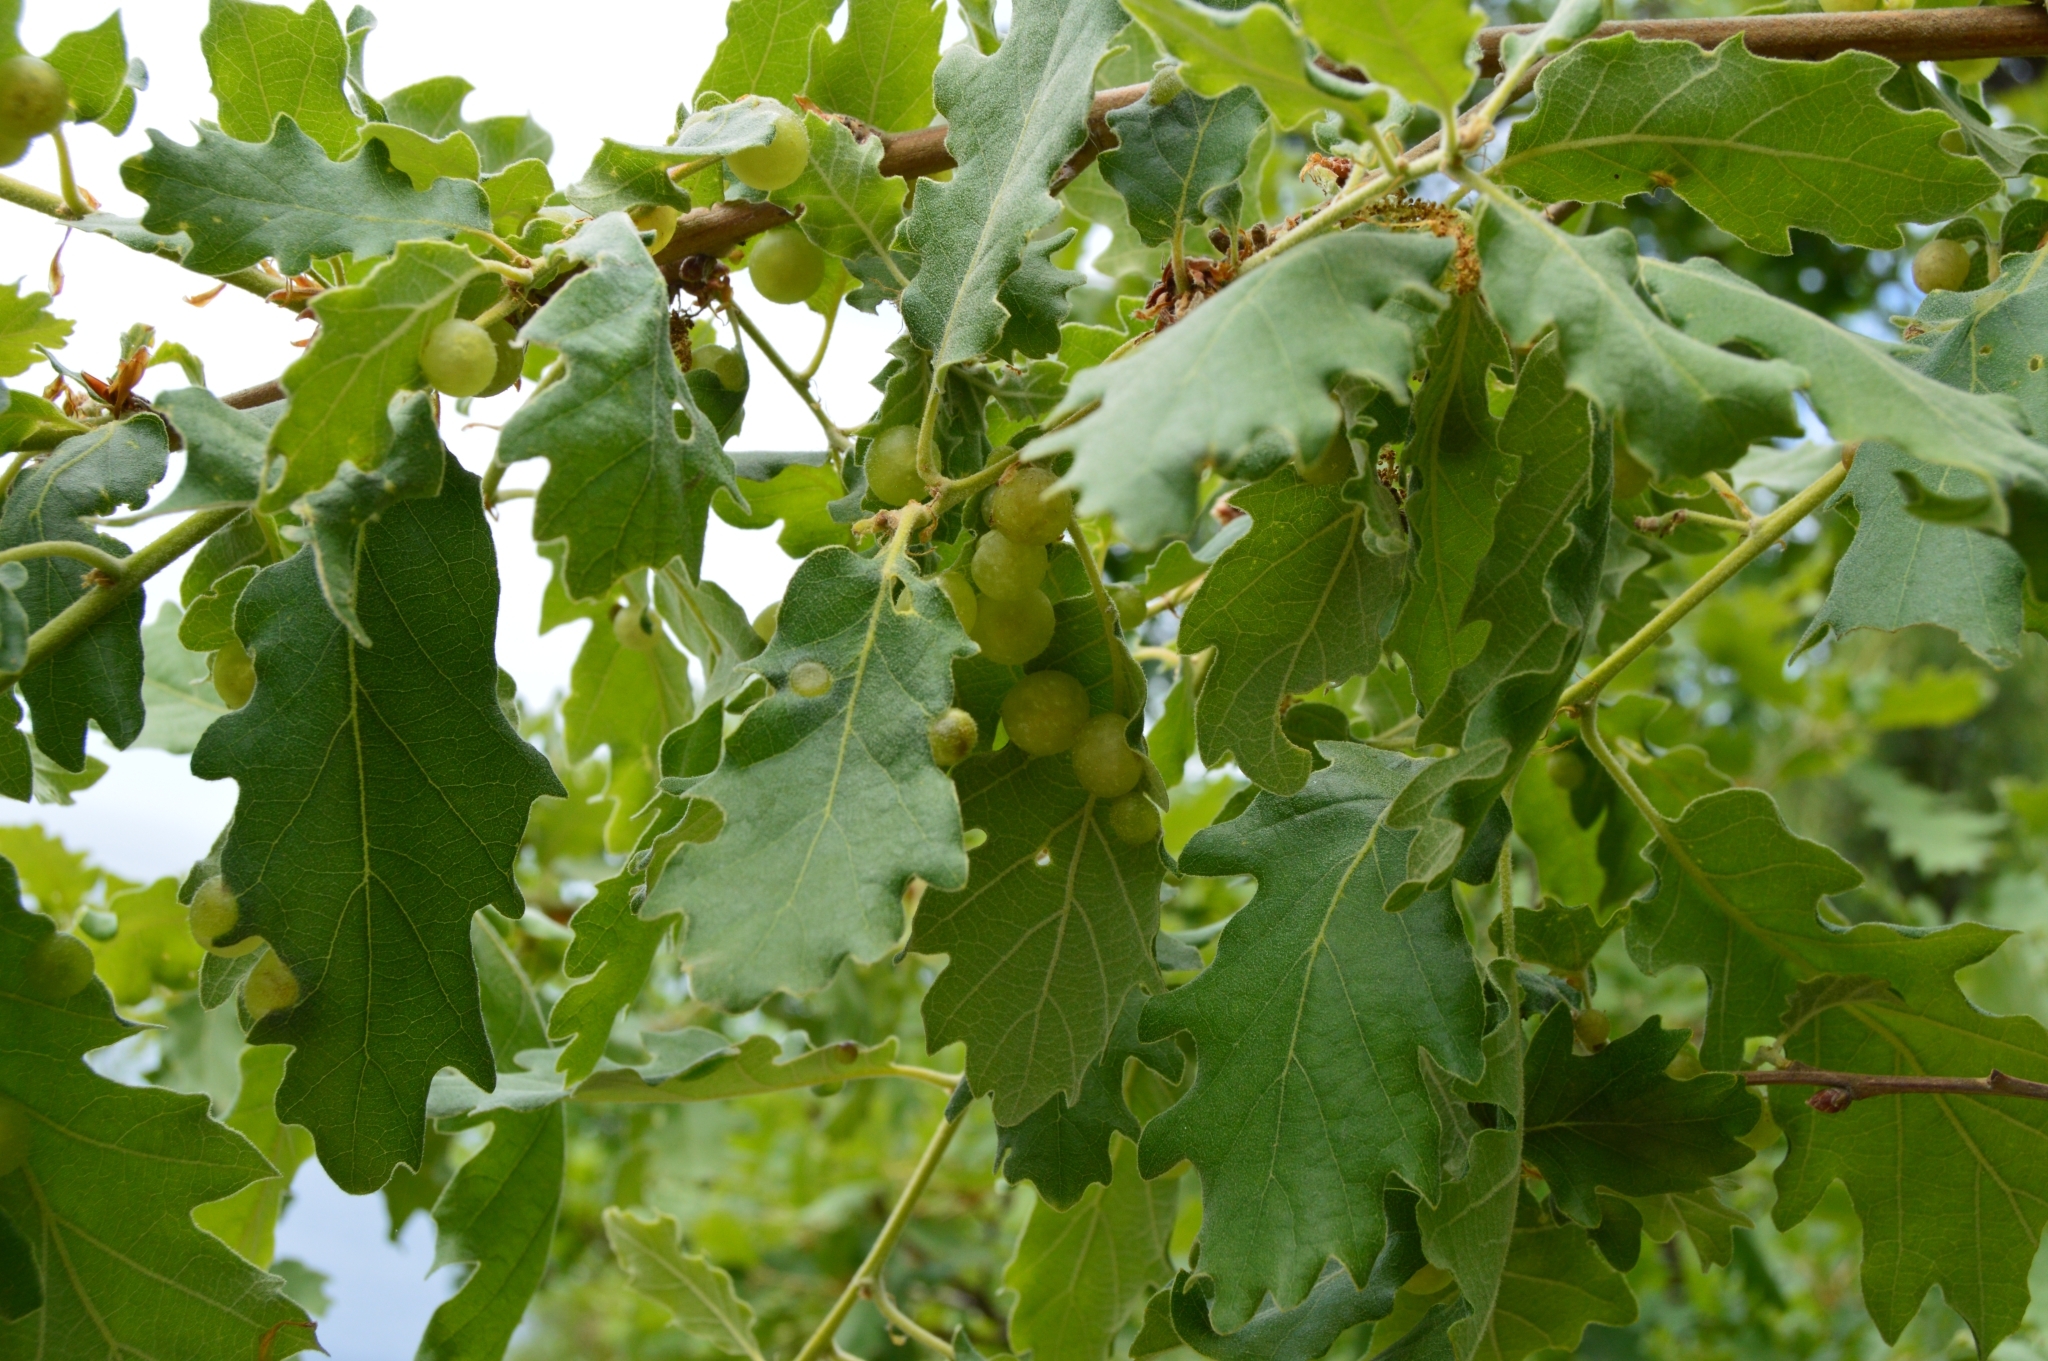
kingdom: Animalia
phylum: Arthropoda
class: Insecta
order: Hymenoptera
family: Cynipidae
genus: Neuroterus
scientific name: Neuroterus quercusbaccarum
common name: Common spangle gall
